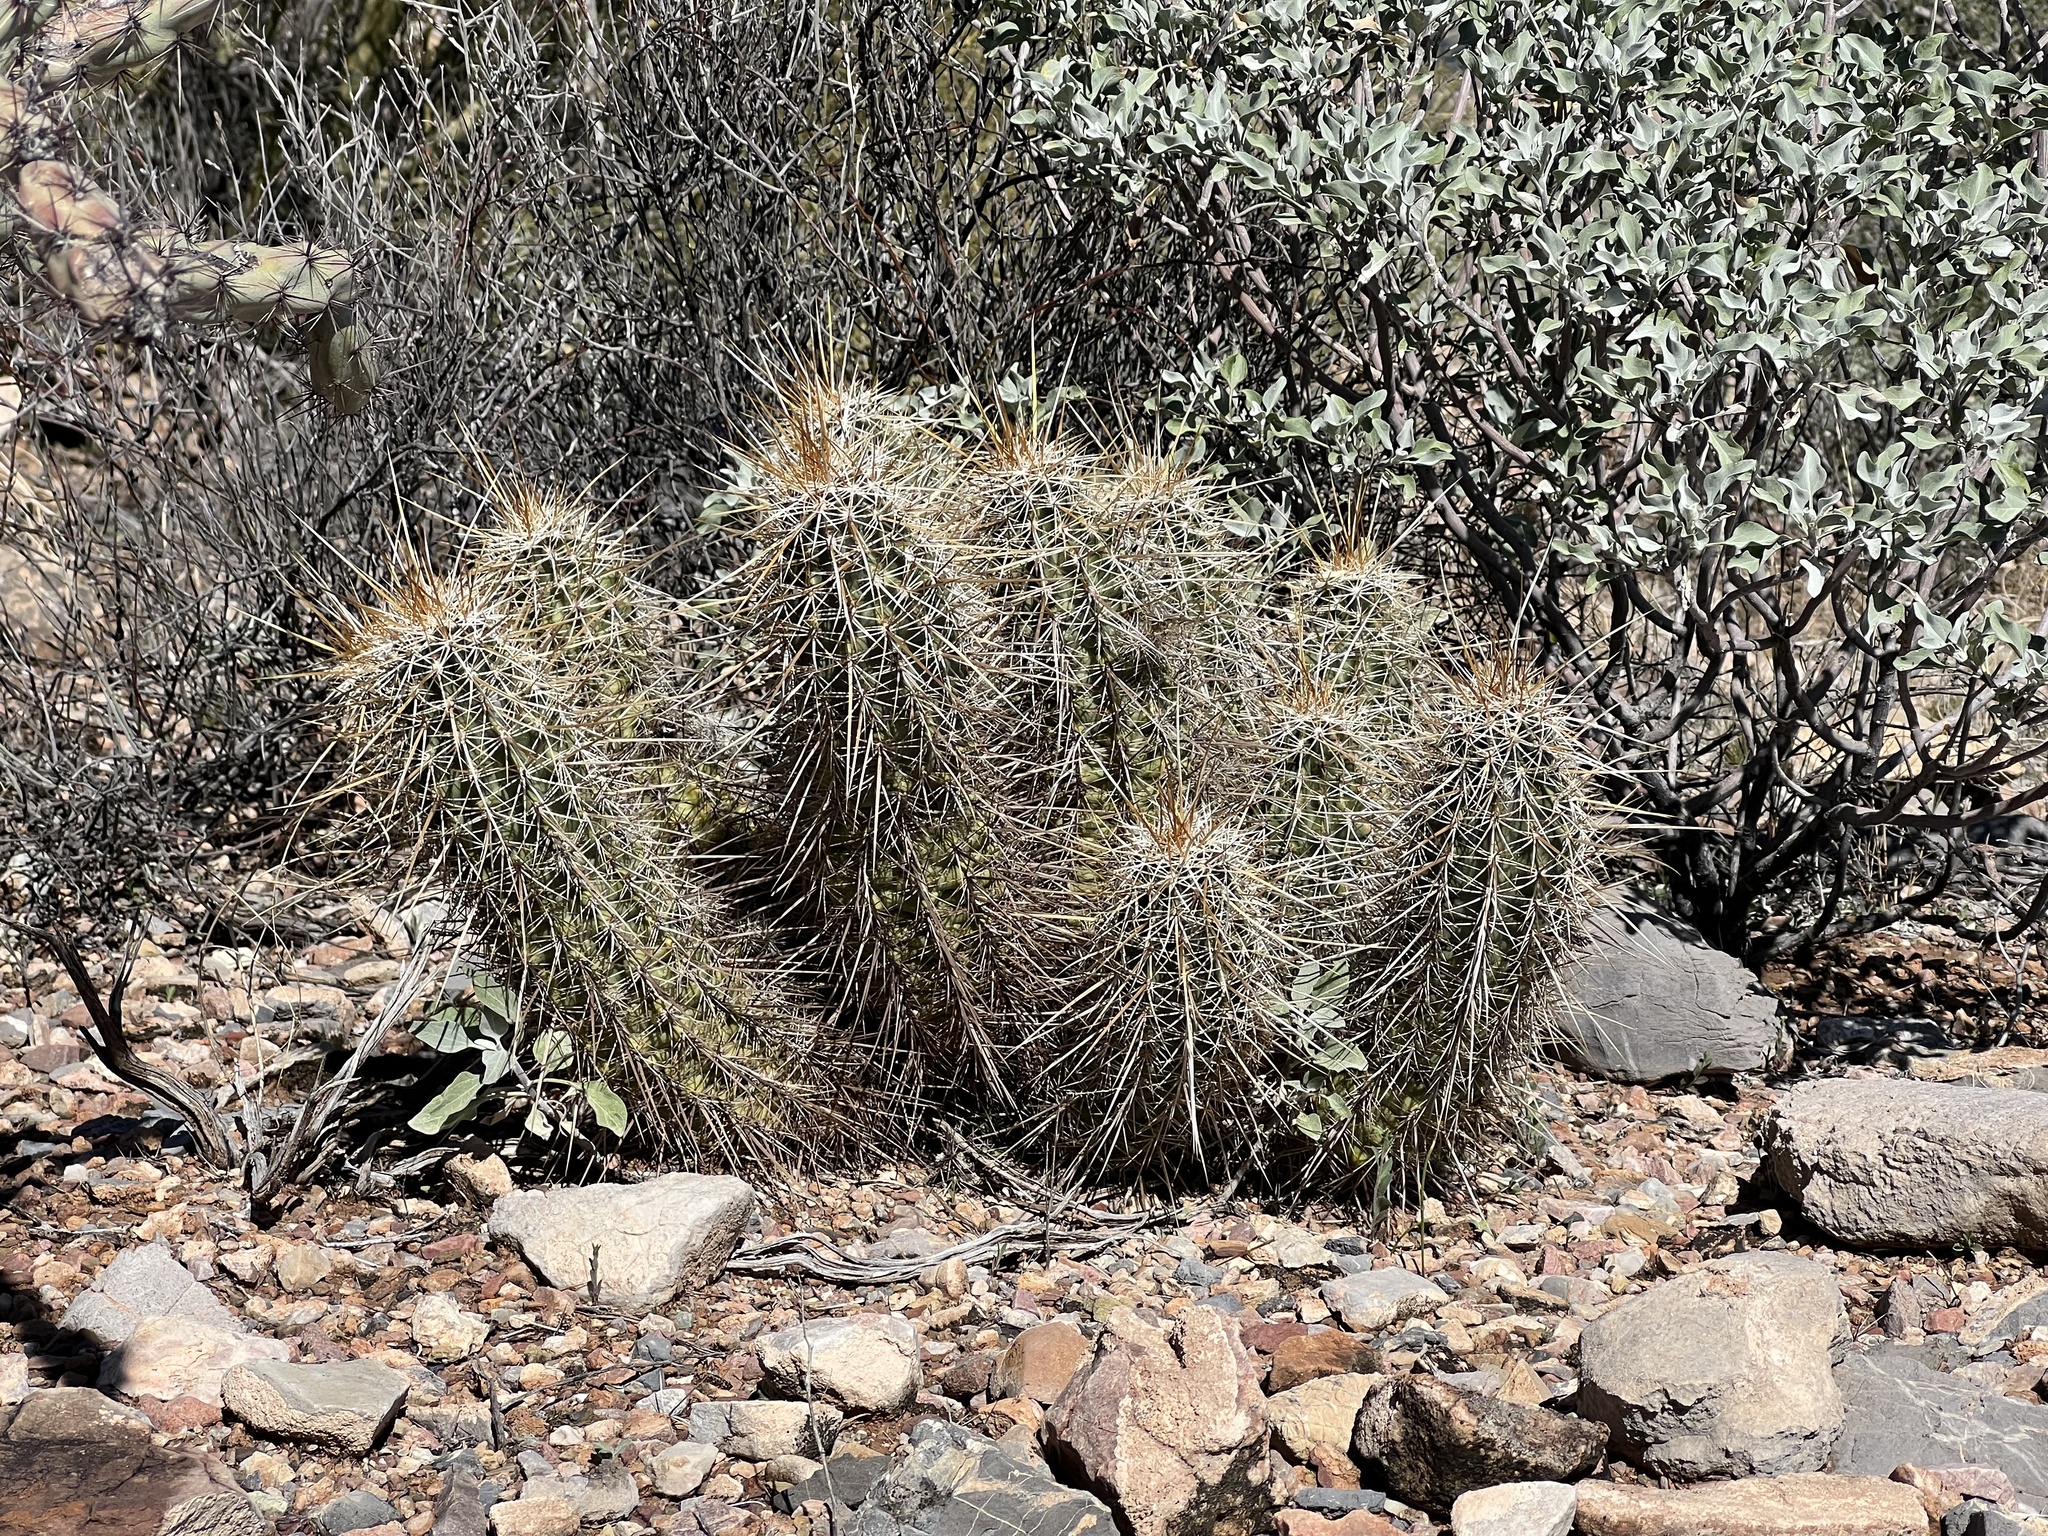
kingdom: Plantae
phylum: Tracheophyta
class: Magnoliopsida
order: Caryophyllales
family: Cactaceae
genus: Echinocereus
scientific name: Echinocereus fasciculatus
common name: Bundle hedgehog
